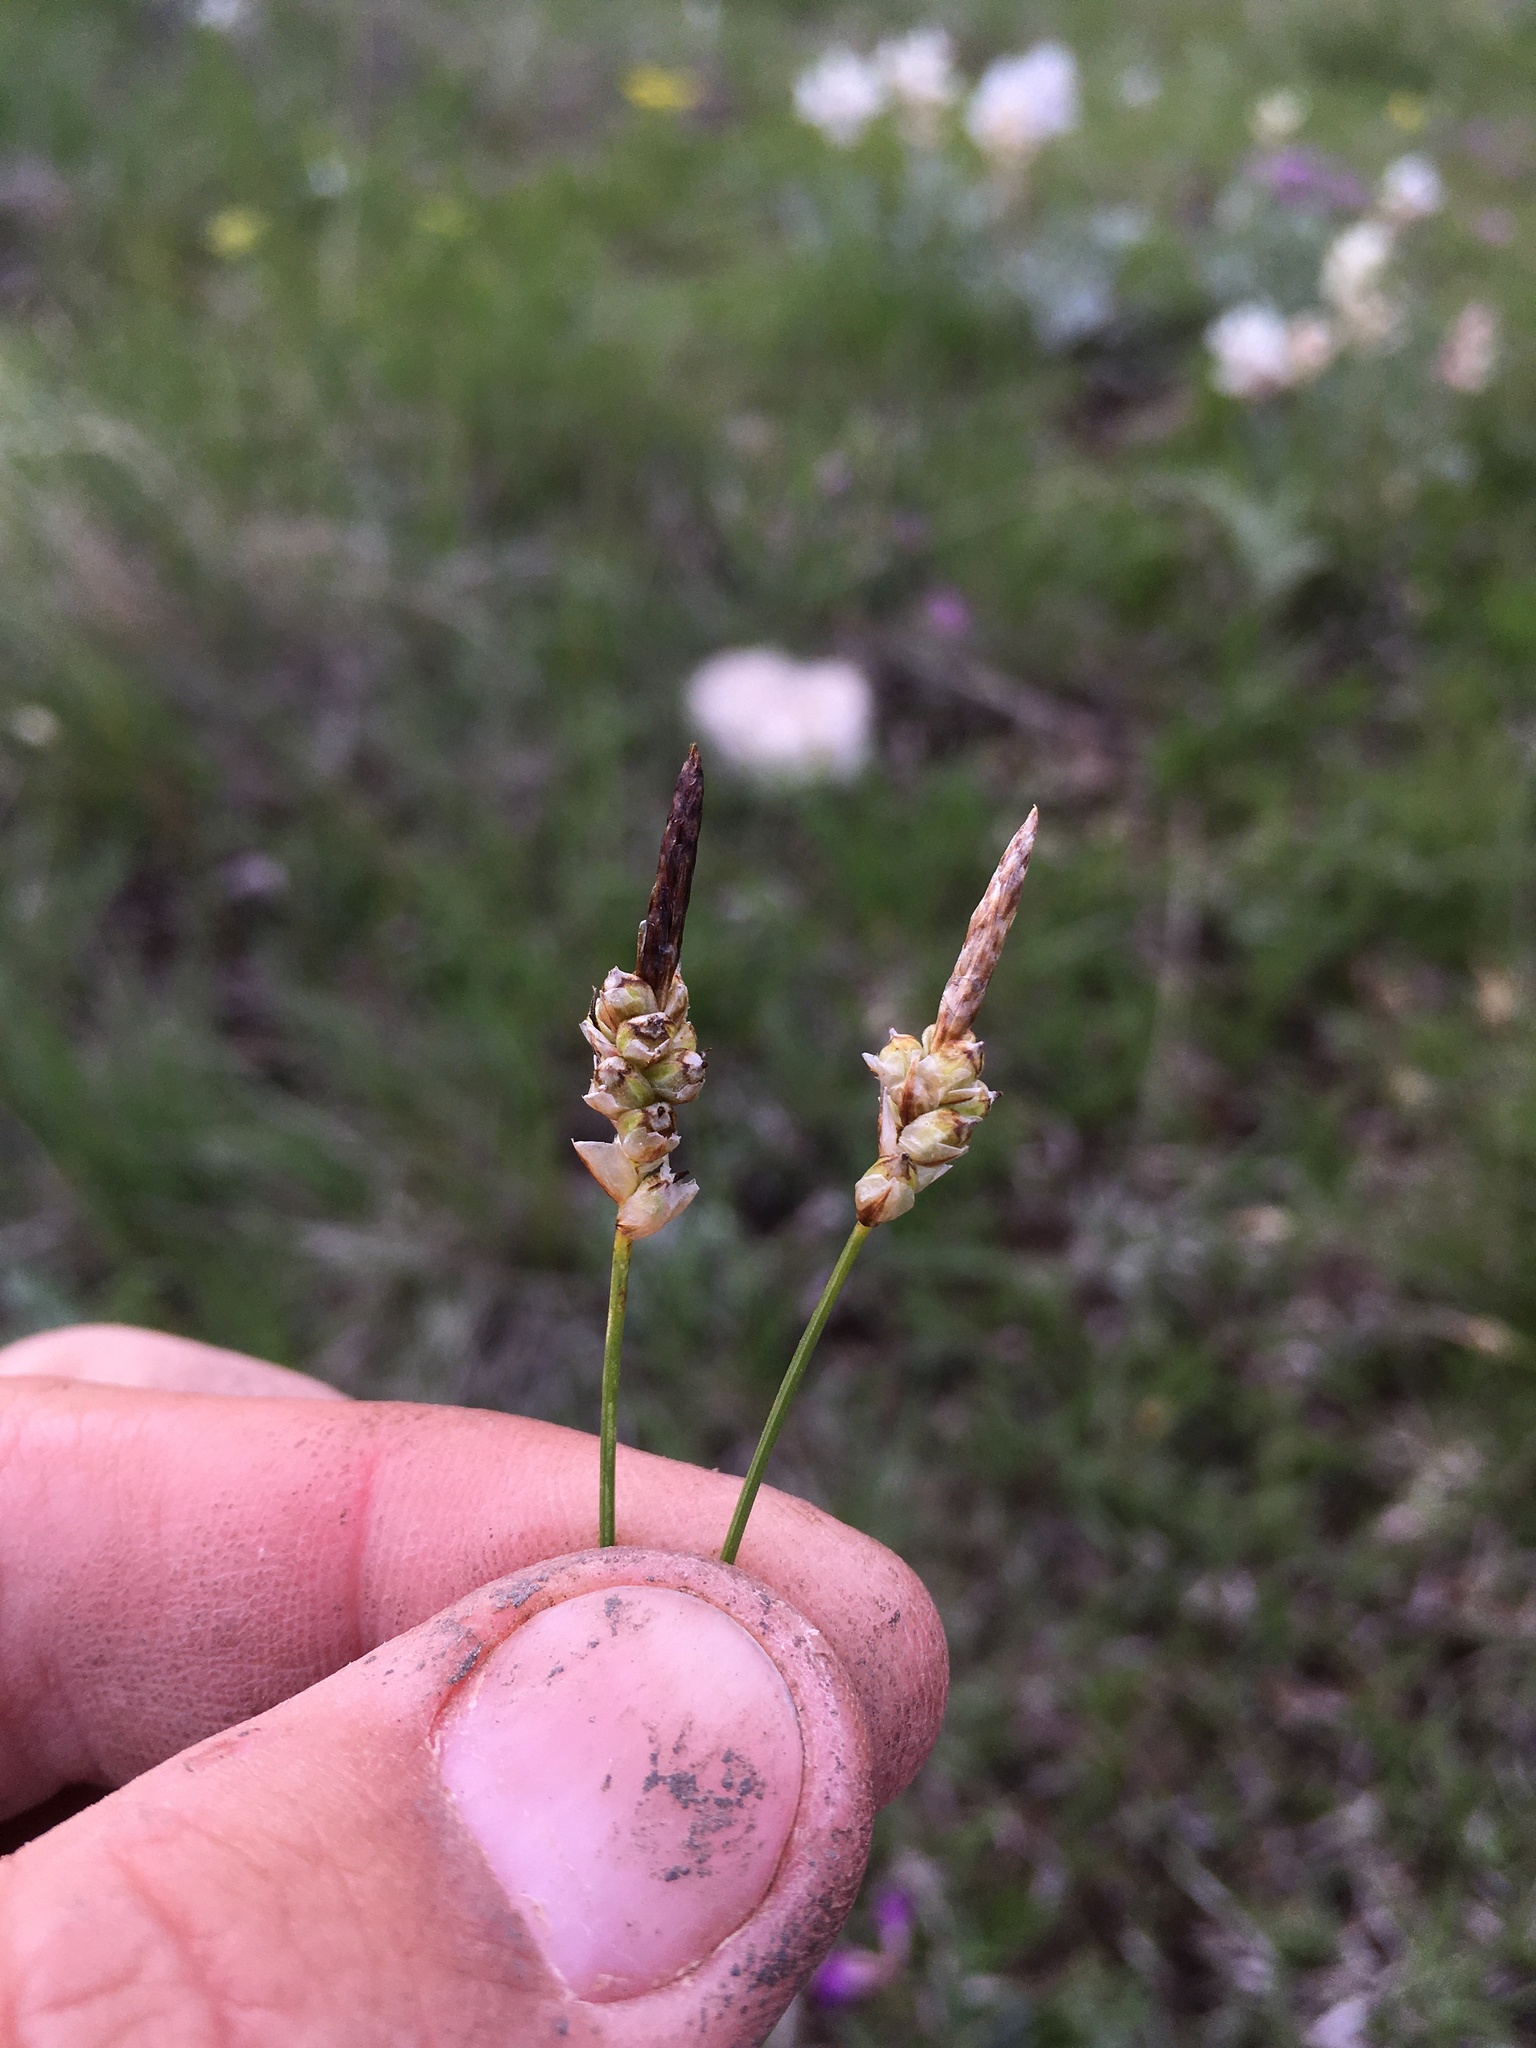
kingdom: Plantae
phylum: Tracheophyta
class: Liliopsida
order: Poales
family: Cyperaceae
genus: Carex
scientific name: Carex filifolia
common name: Threadleaf sedge
